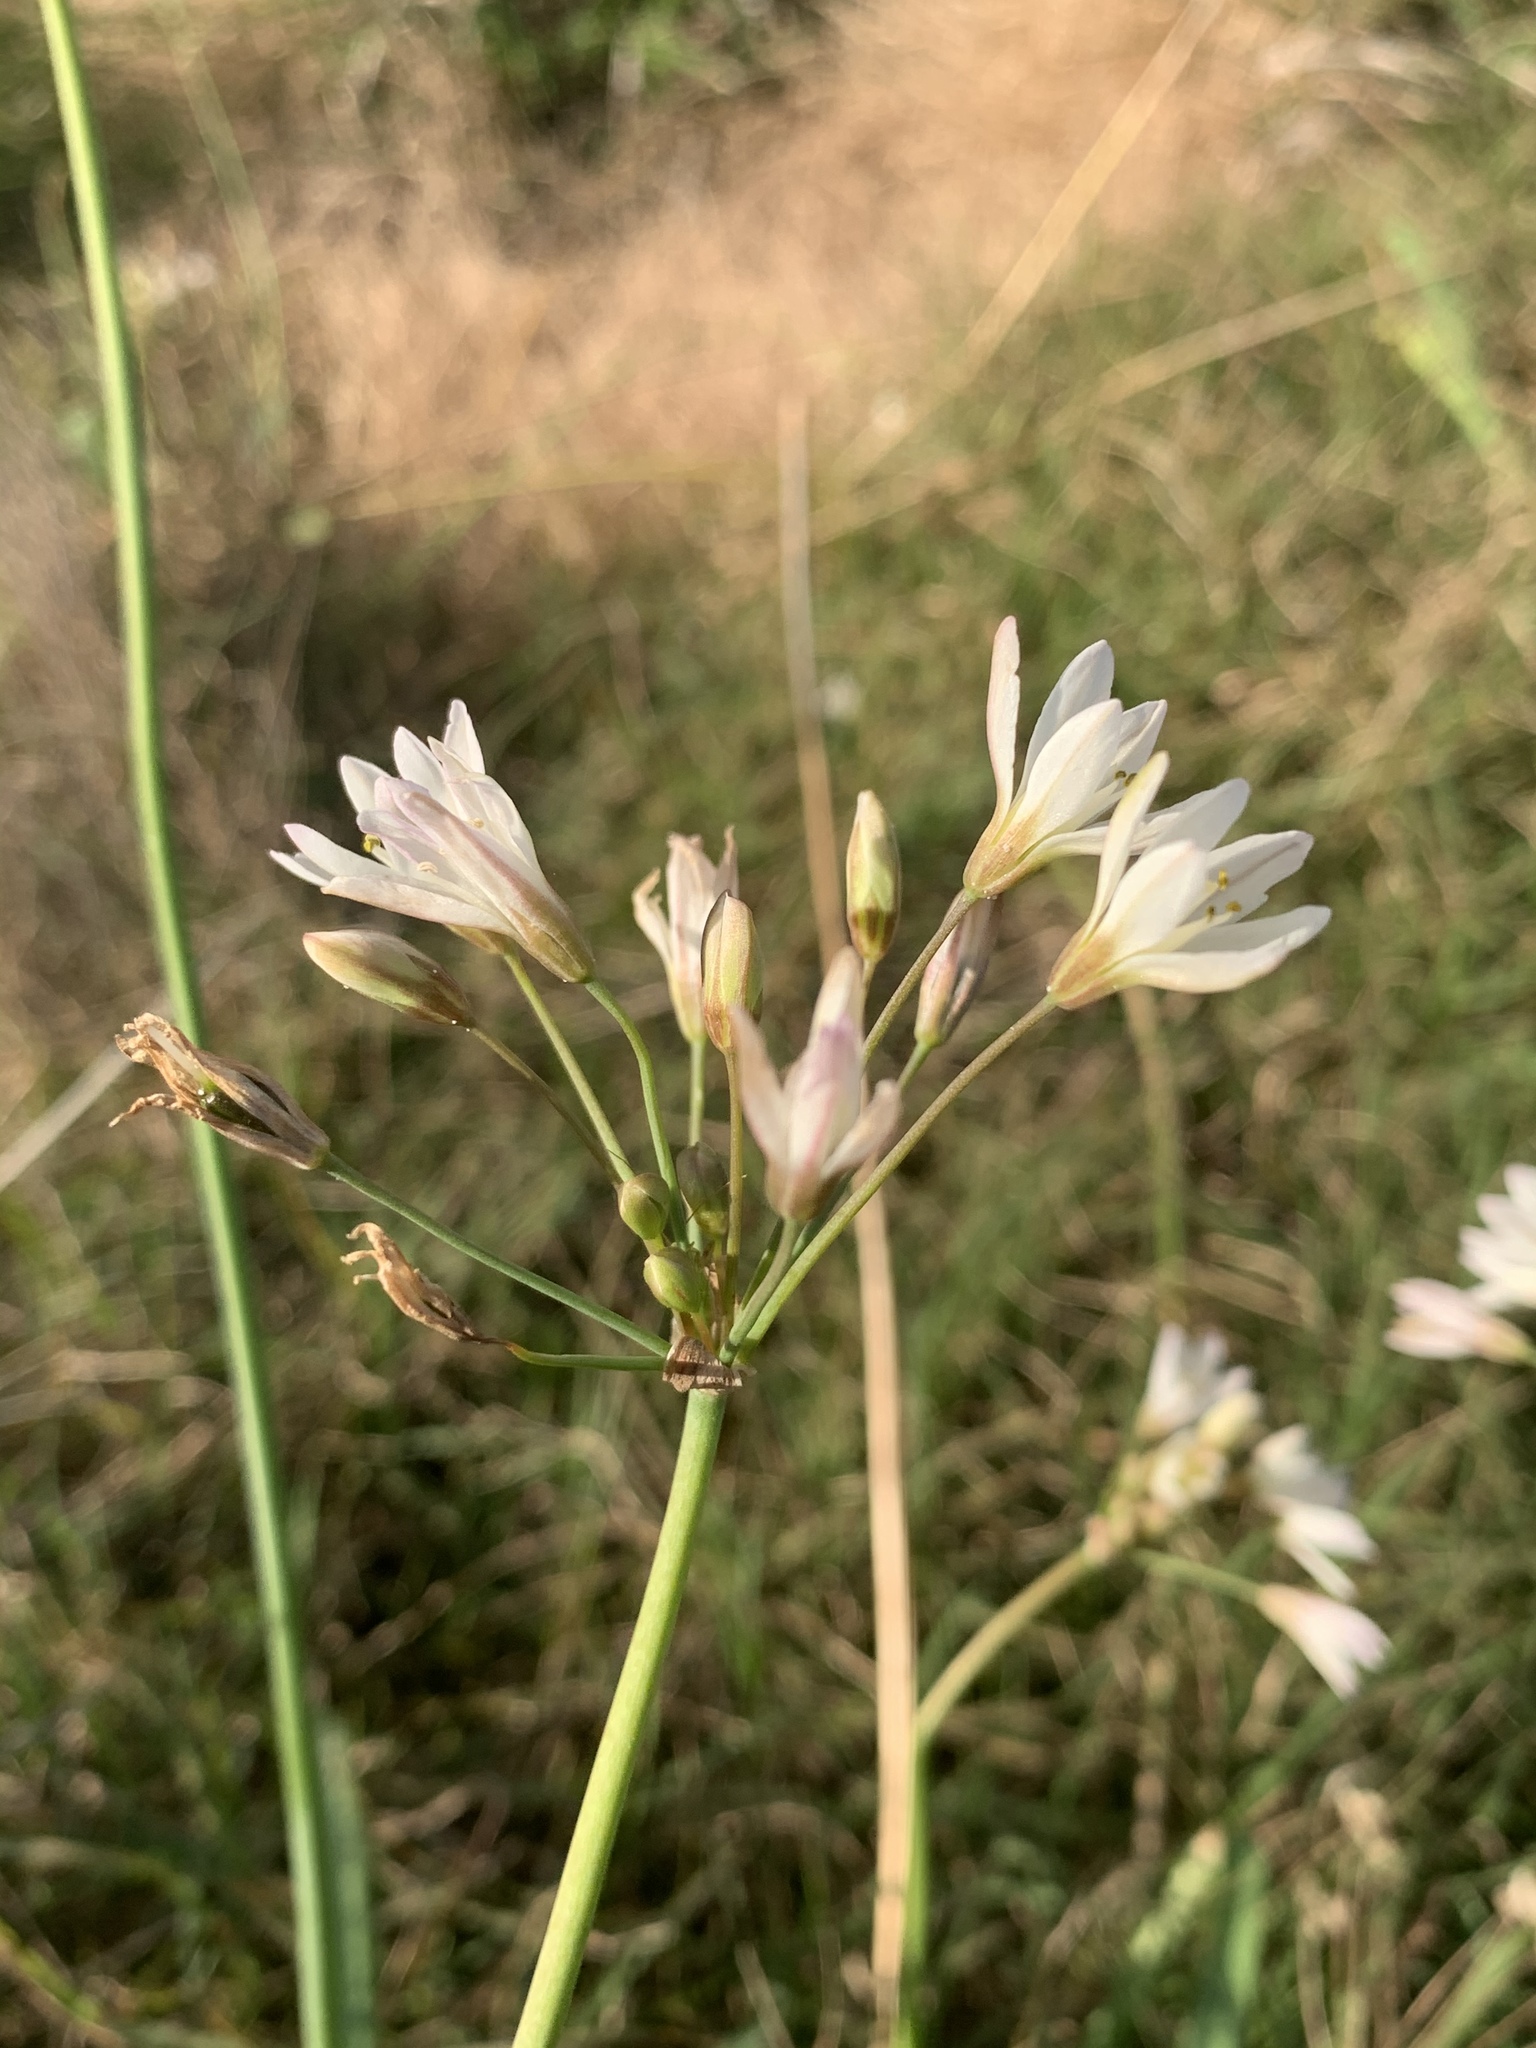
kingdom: Plantae
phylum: Tracheophyta
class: Liliopsida
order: Asparagales
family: Amaryllidaceae
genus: Nothoscordum
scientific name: Nothoscordum gracile
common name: Slender false garlic
